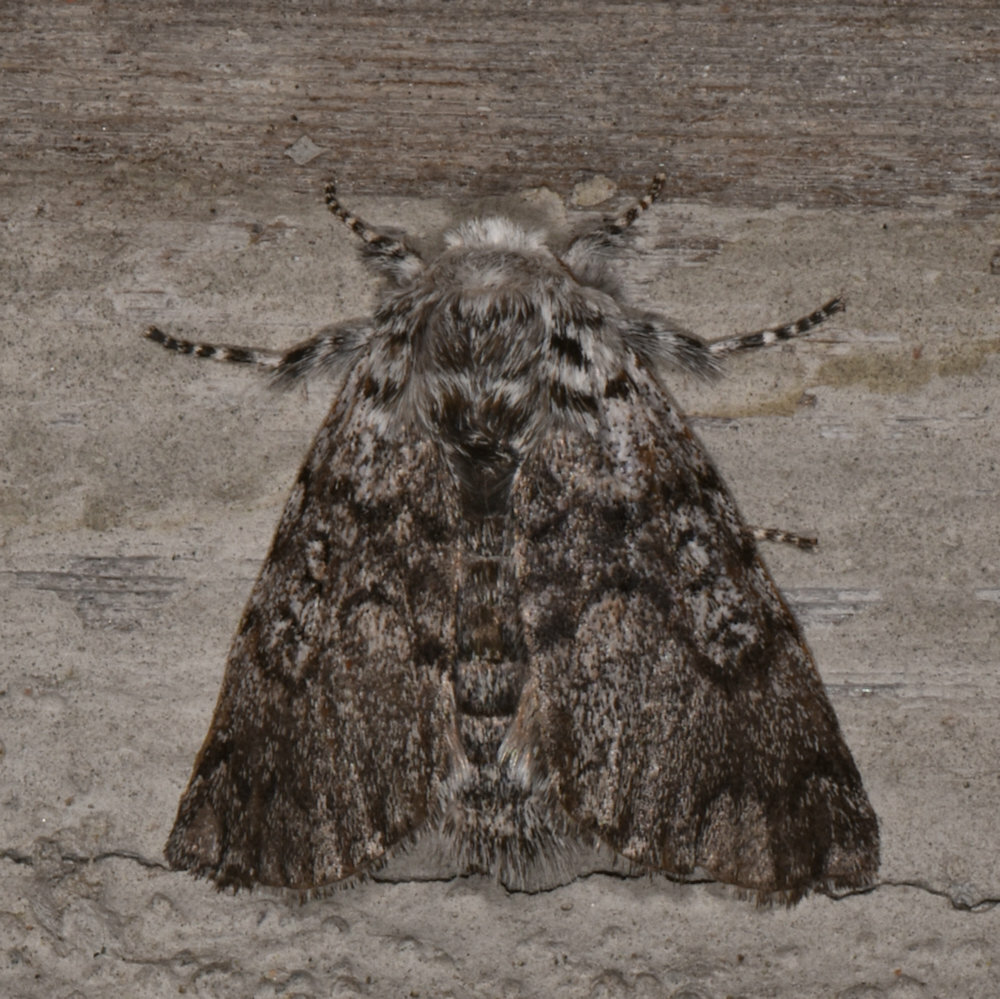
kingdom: Animalia
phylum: Arthropoda
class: Insecta
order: Lepidoptera
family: Noctuidae
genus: Colocasia
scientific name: Colocasia propinquilinea
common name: Close-banded demas
